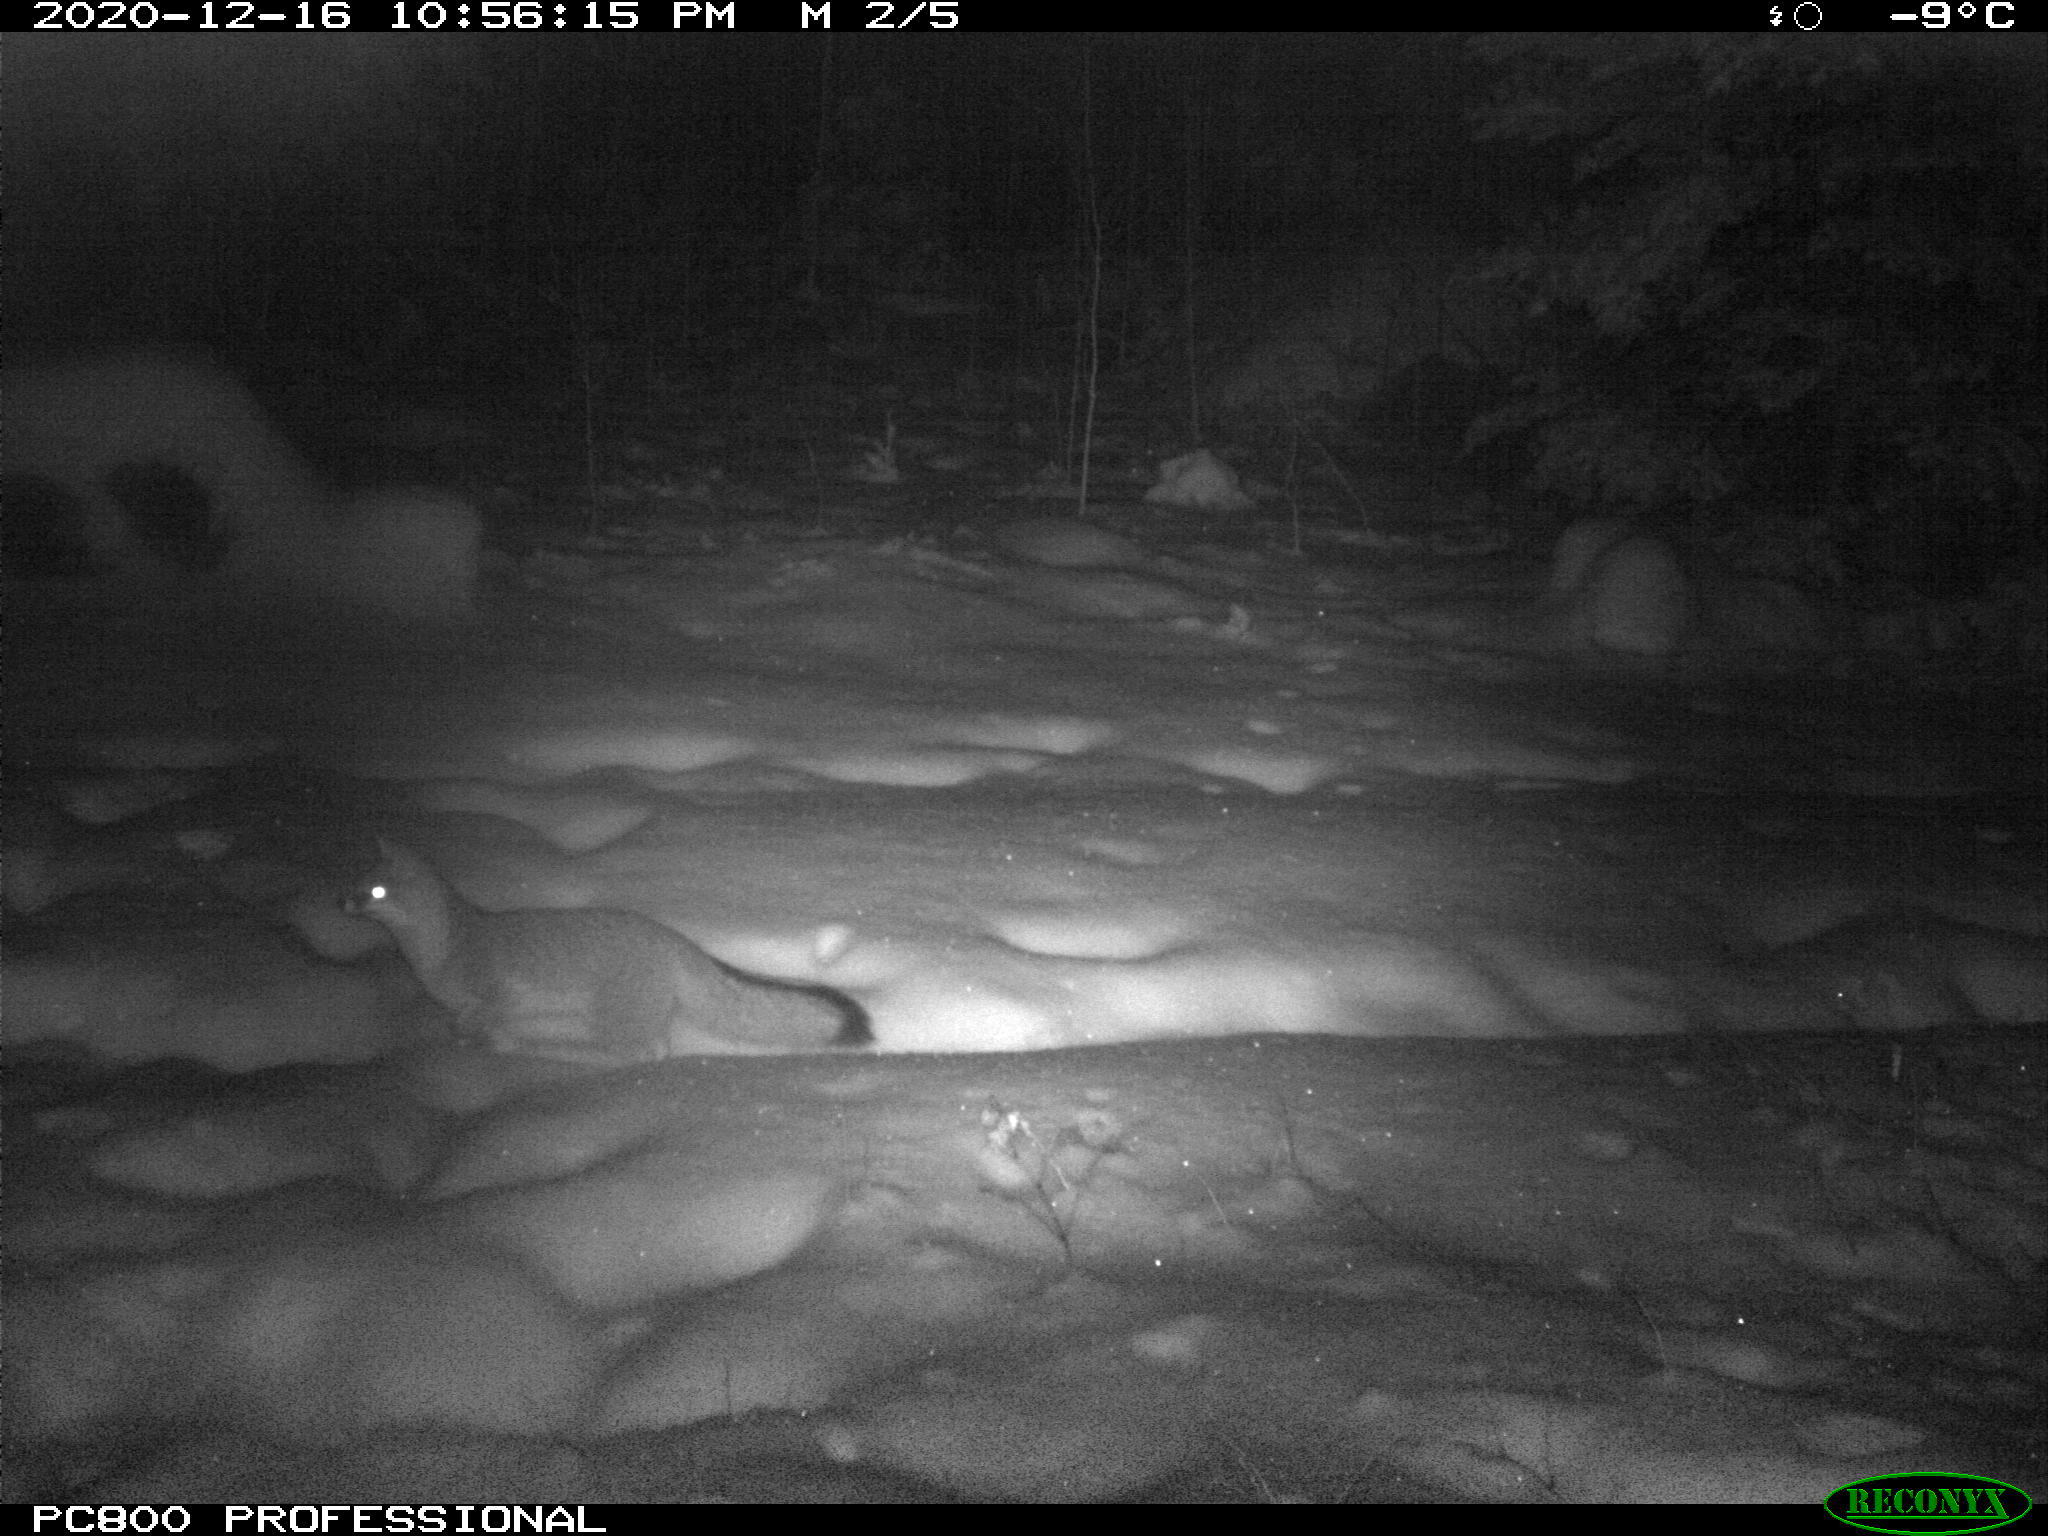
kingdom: Animalia
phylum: Chordata
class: Mammalia
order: Carnivora
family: Canidae
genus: Urocyon
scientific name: Urocyon cinereoargenteus
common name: Gray fox
